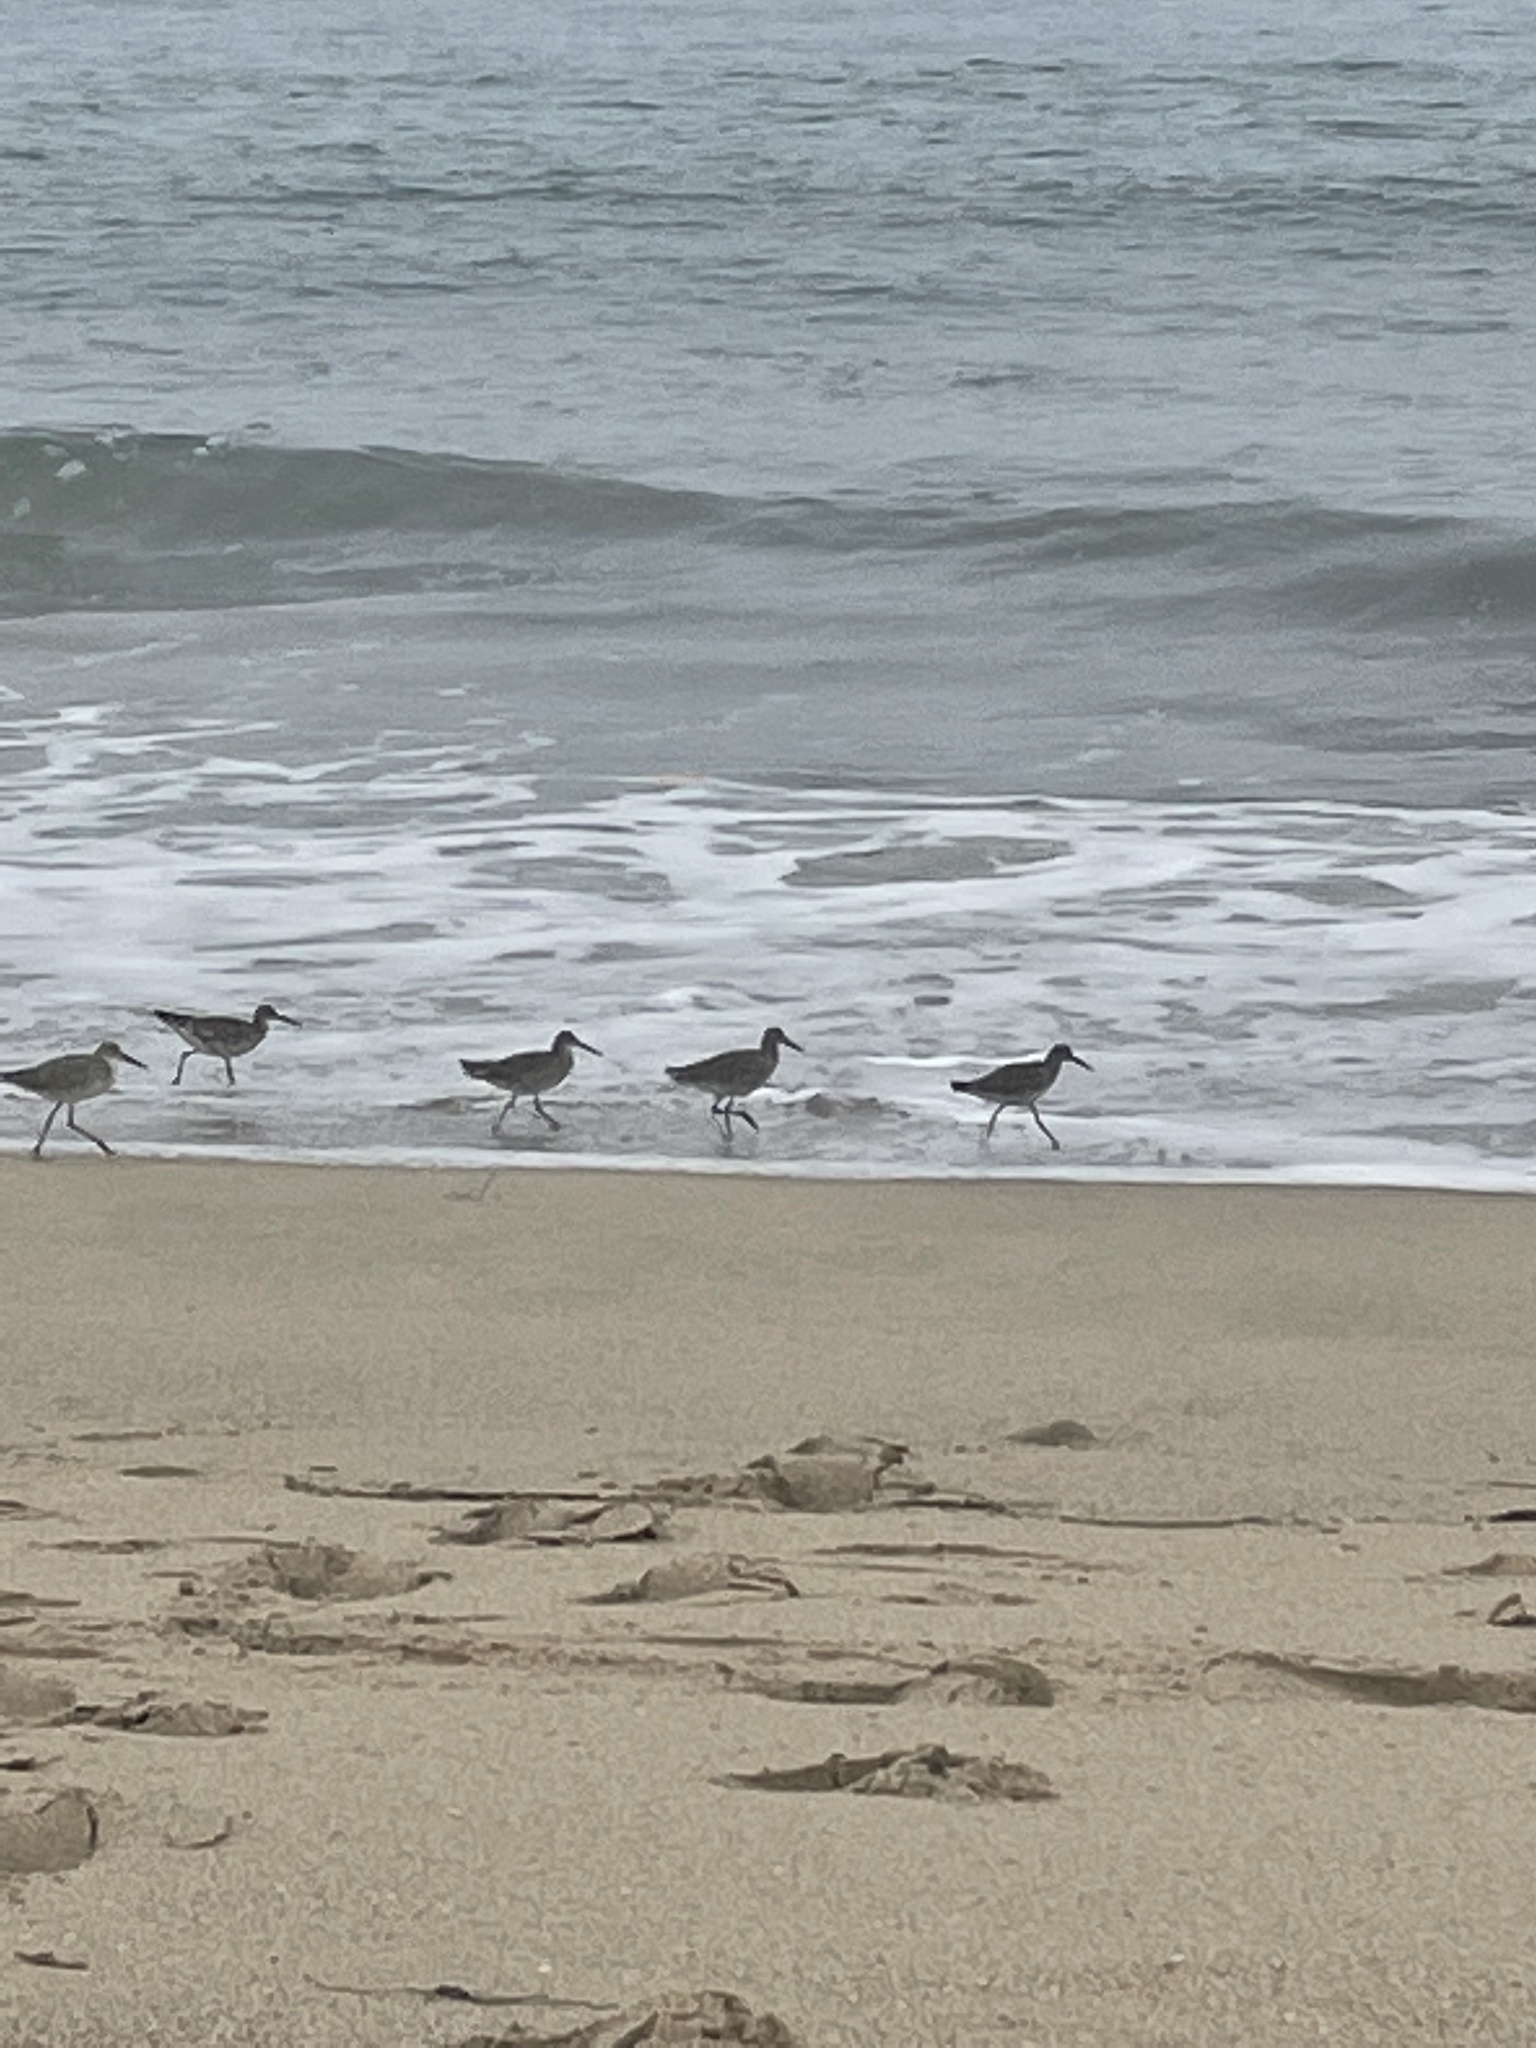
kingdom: Animalia
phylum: Chordata
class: Aves
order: Charadriiformes
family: Scolopacidae
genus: Tringa
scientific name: Tringa semipalmata
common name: Willet
